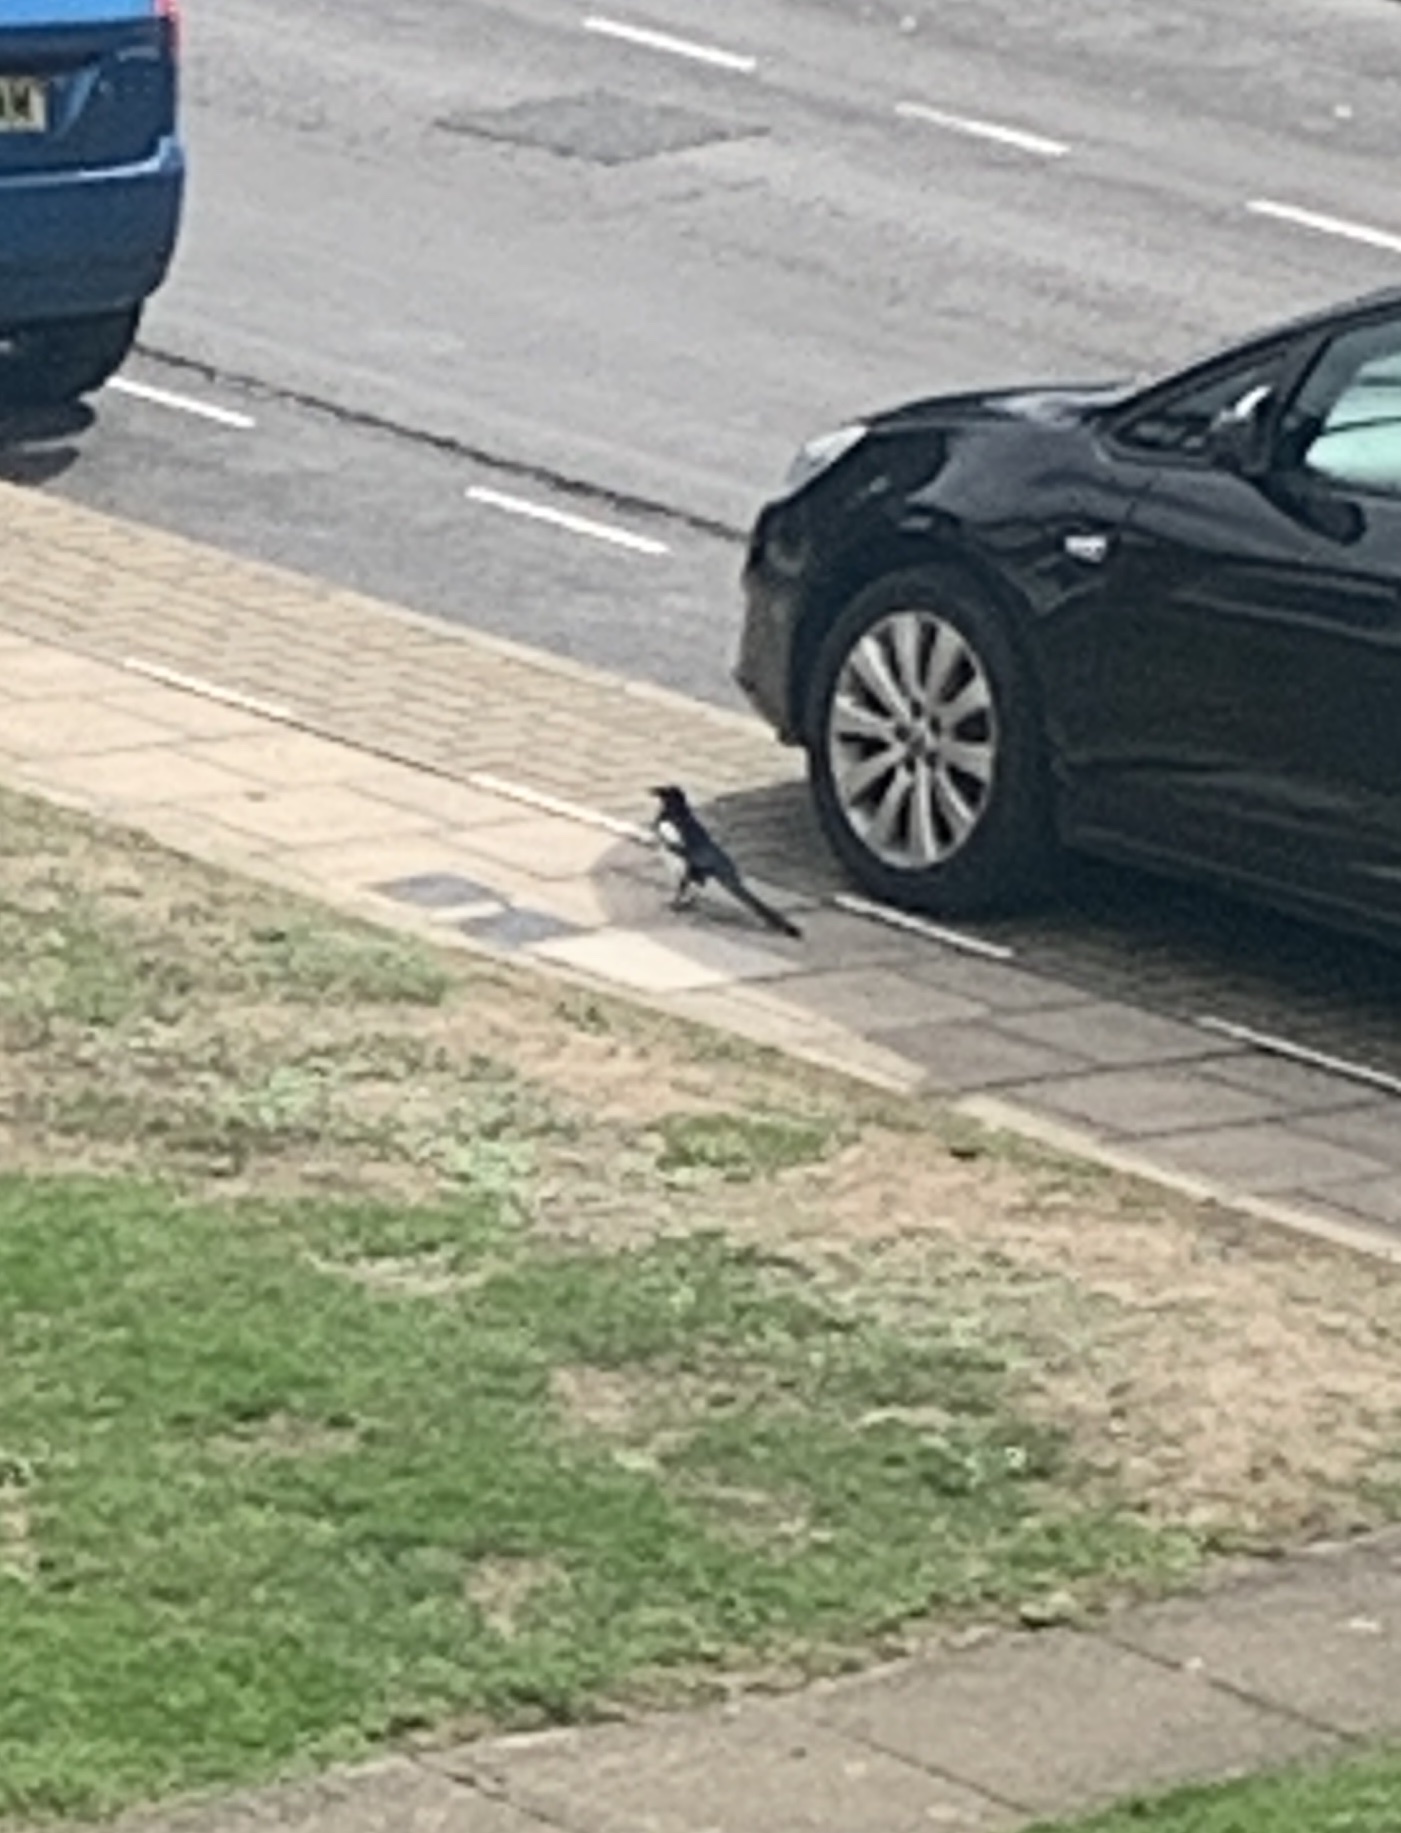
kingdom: Animalia
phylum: Chordata
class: Aves
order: Passeriformes
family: Corvidae
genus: Pica
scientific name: Pica pica
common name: Eurasian magpie
